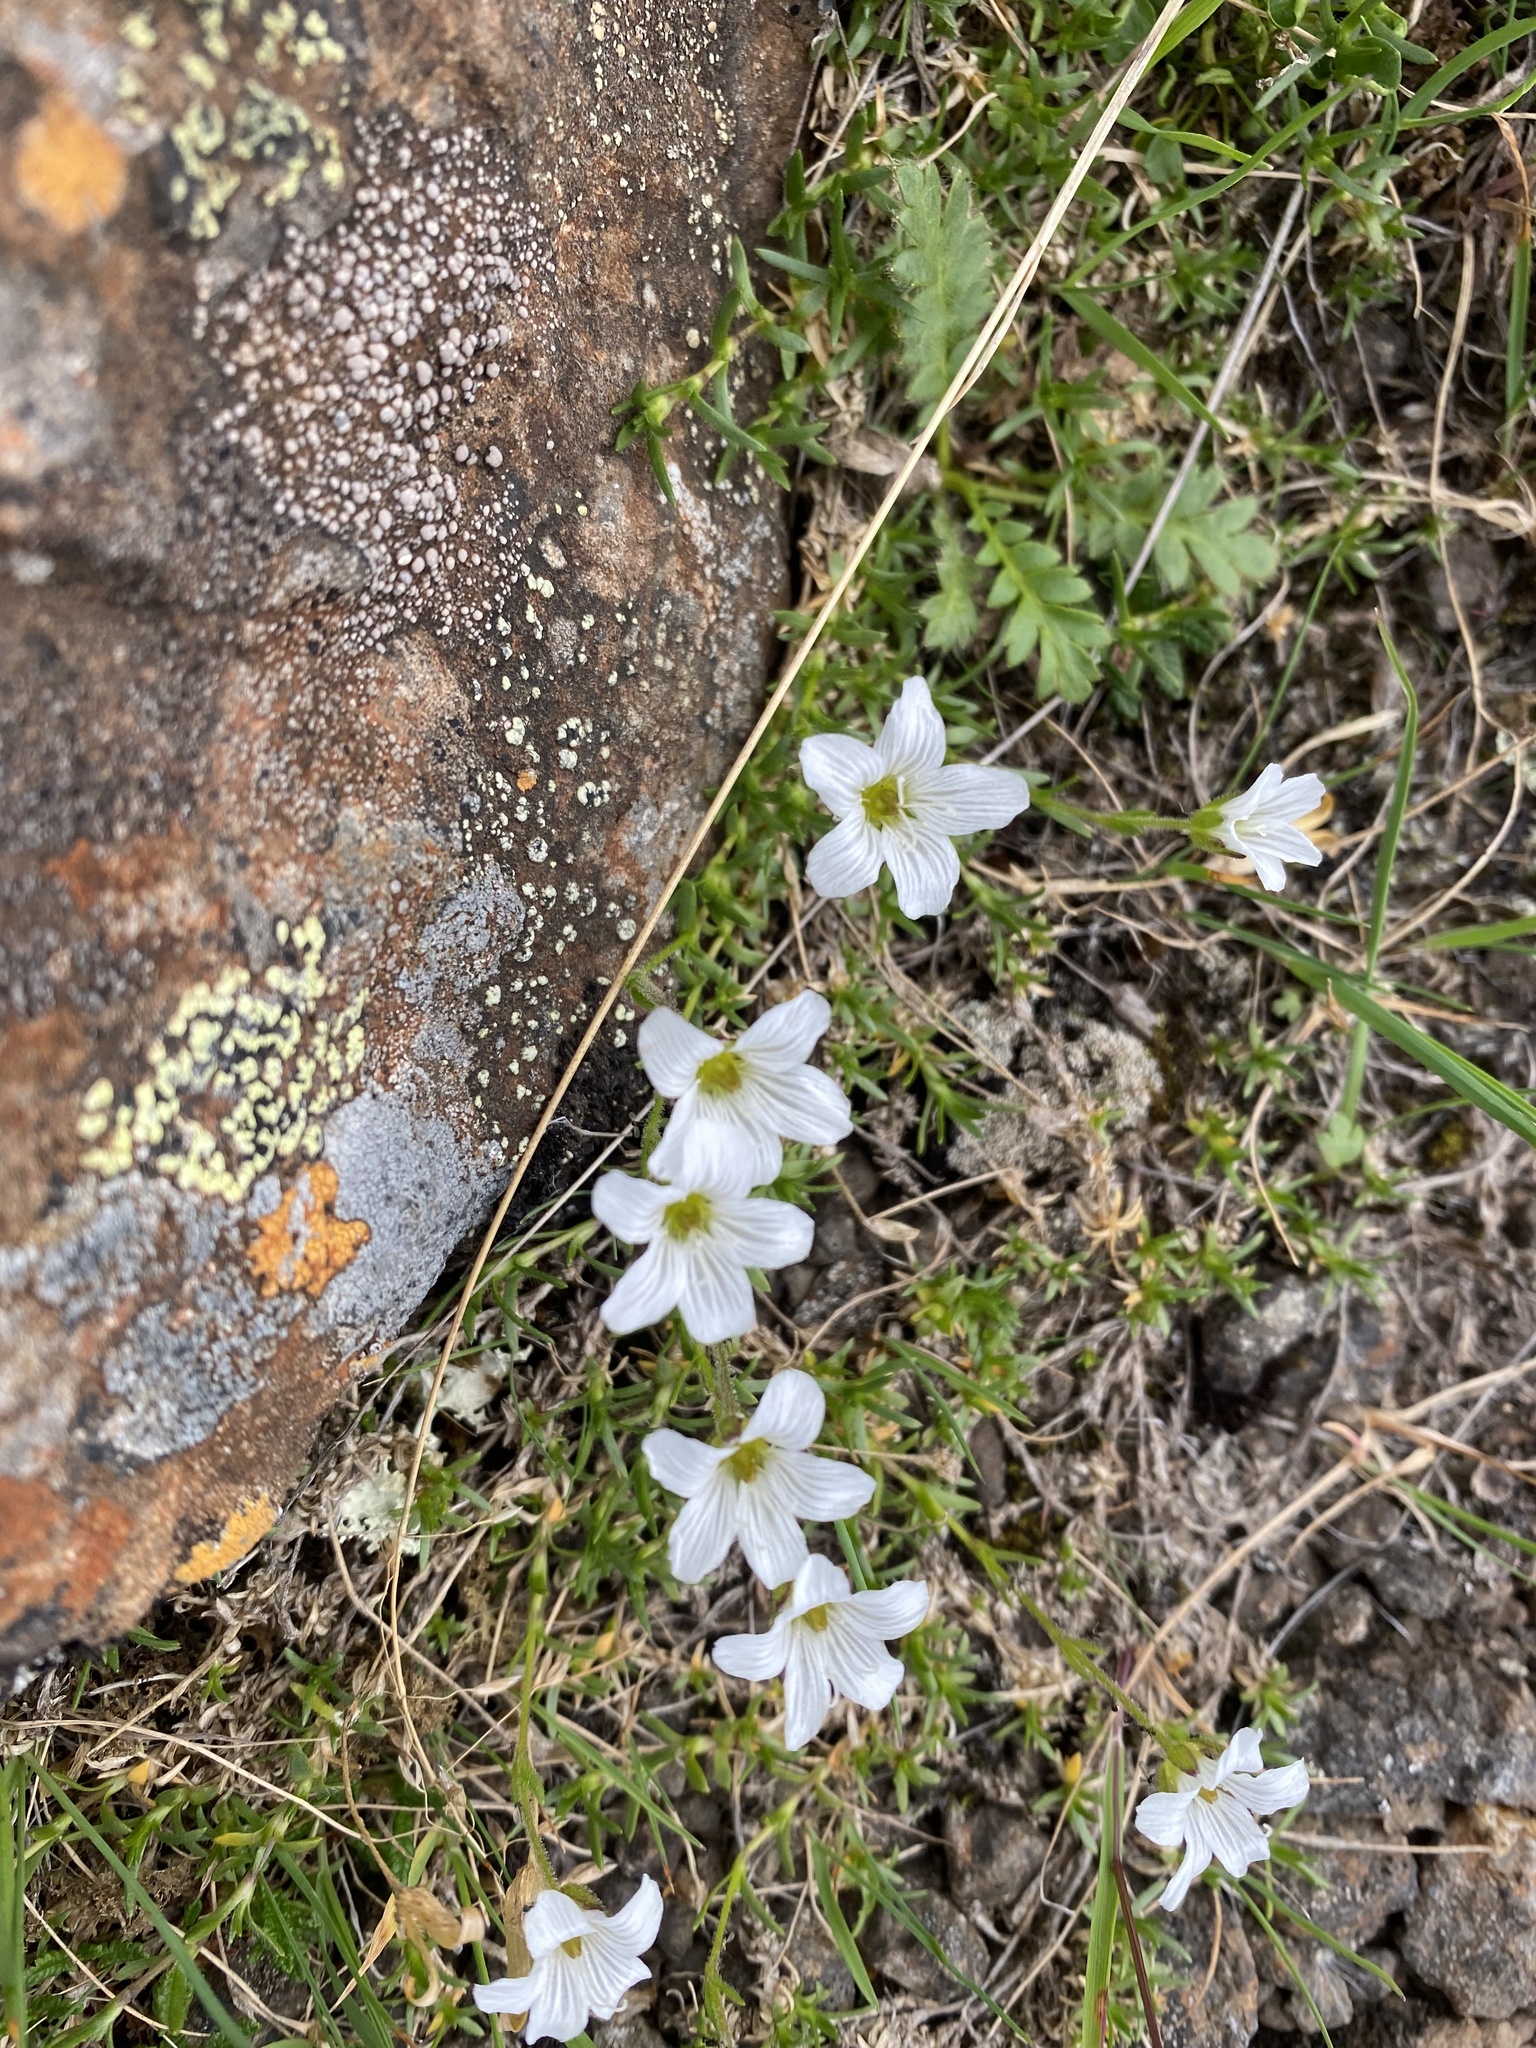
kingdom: Plantae
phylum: Tracheophyta
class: Magnoliopsida
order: Caryophyllales
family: Caryophyllaceae
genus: Pseudocherleria
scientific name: Pseudocherleria macrocarpa
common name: Large-fruit sandwort
